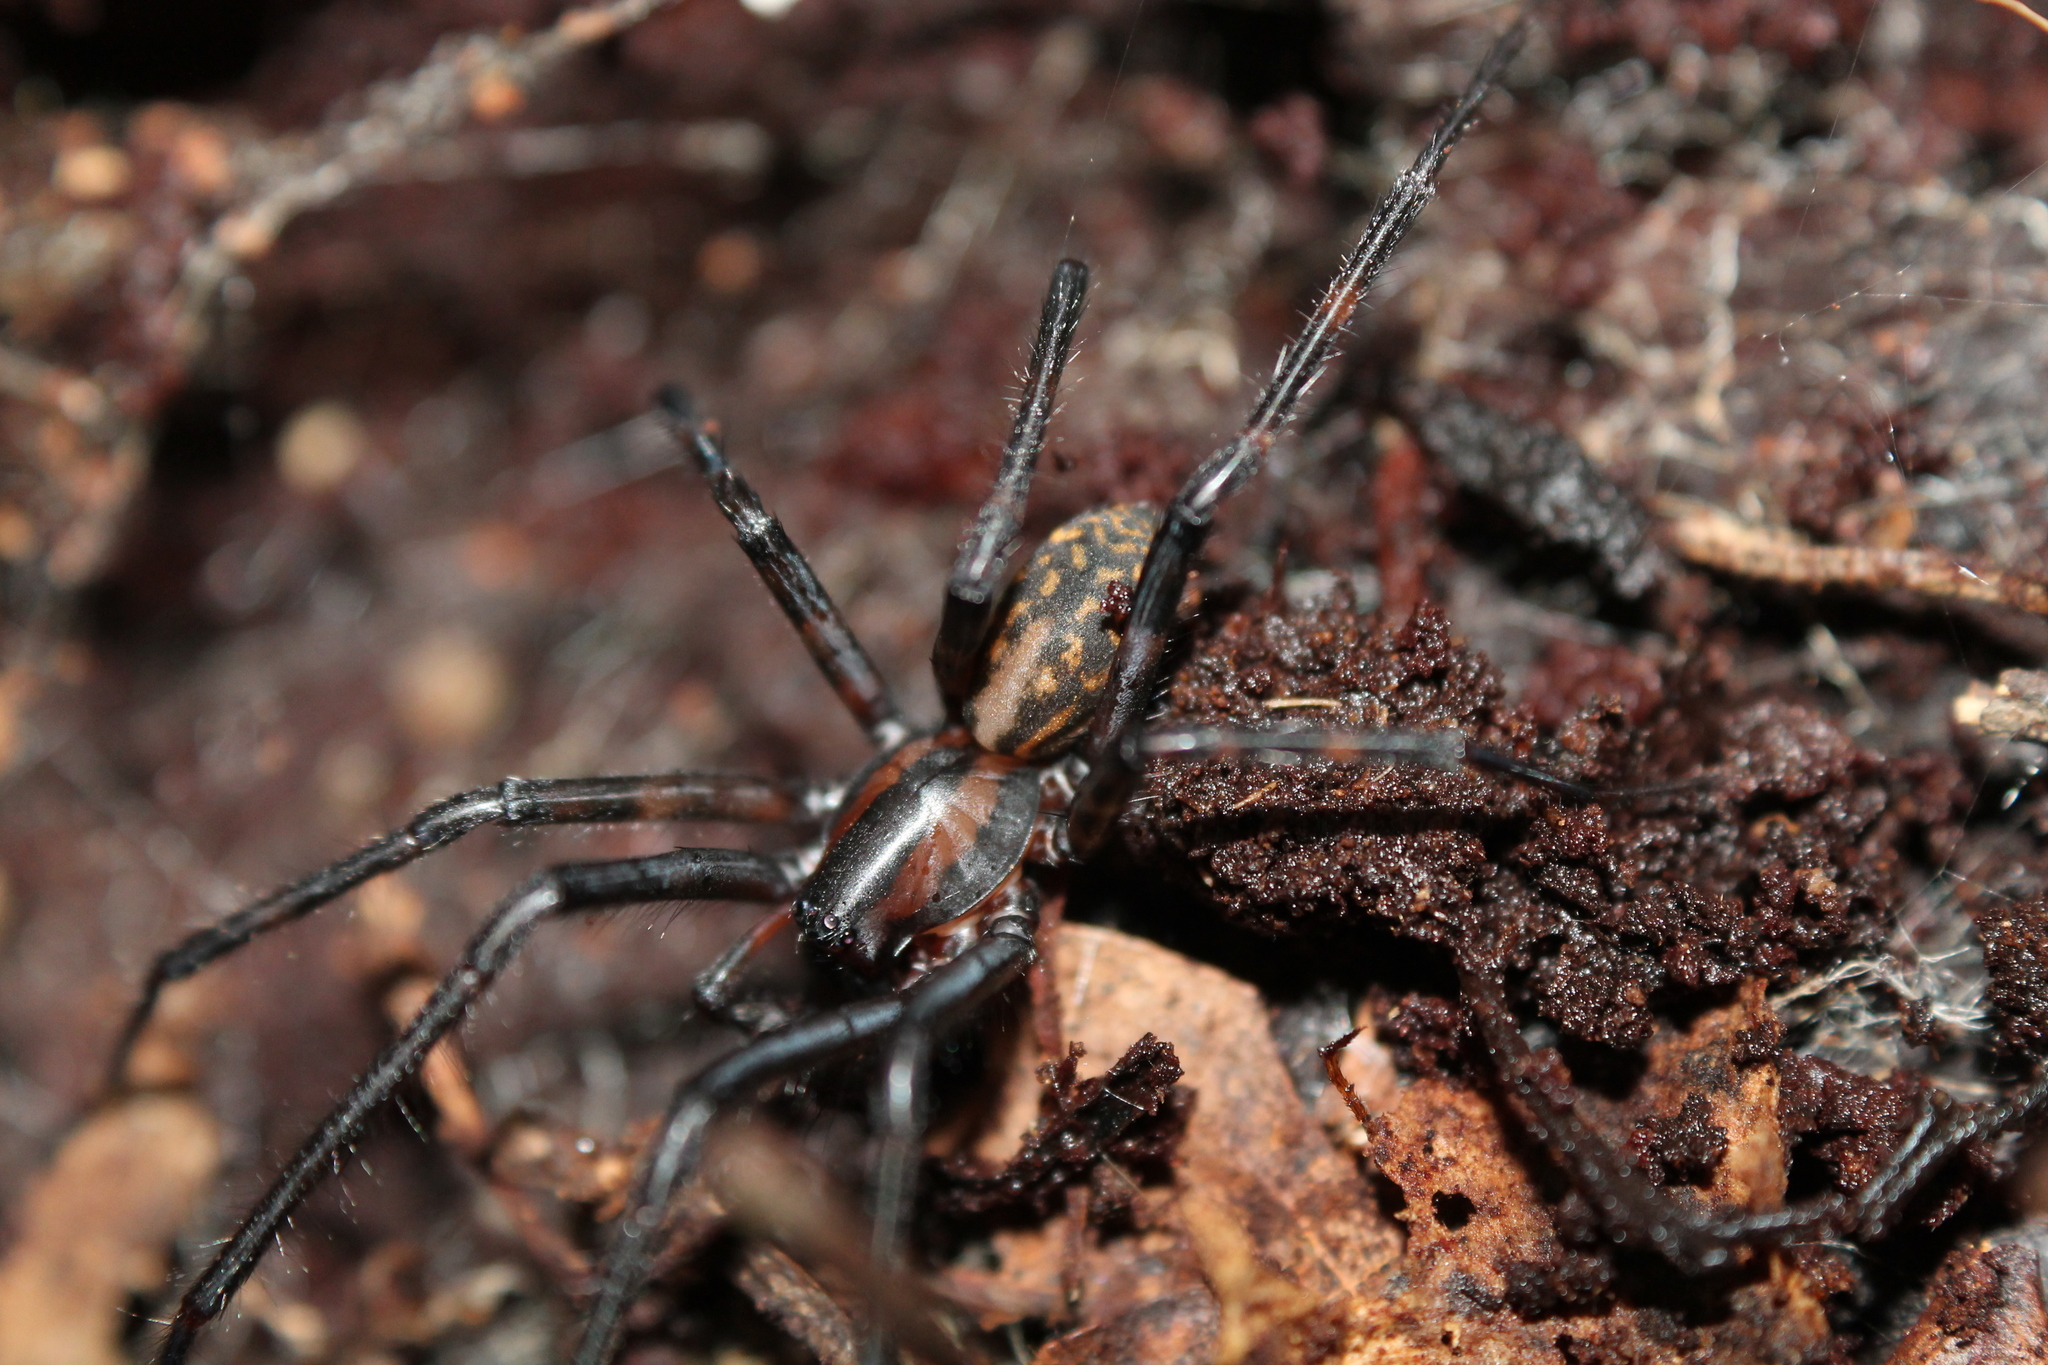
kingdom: Animalia
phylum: Arthropoda
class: Arachnida
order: Araneae
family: Desidae
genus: Cambridgea
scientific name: Cambridgea plagiata
